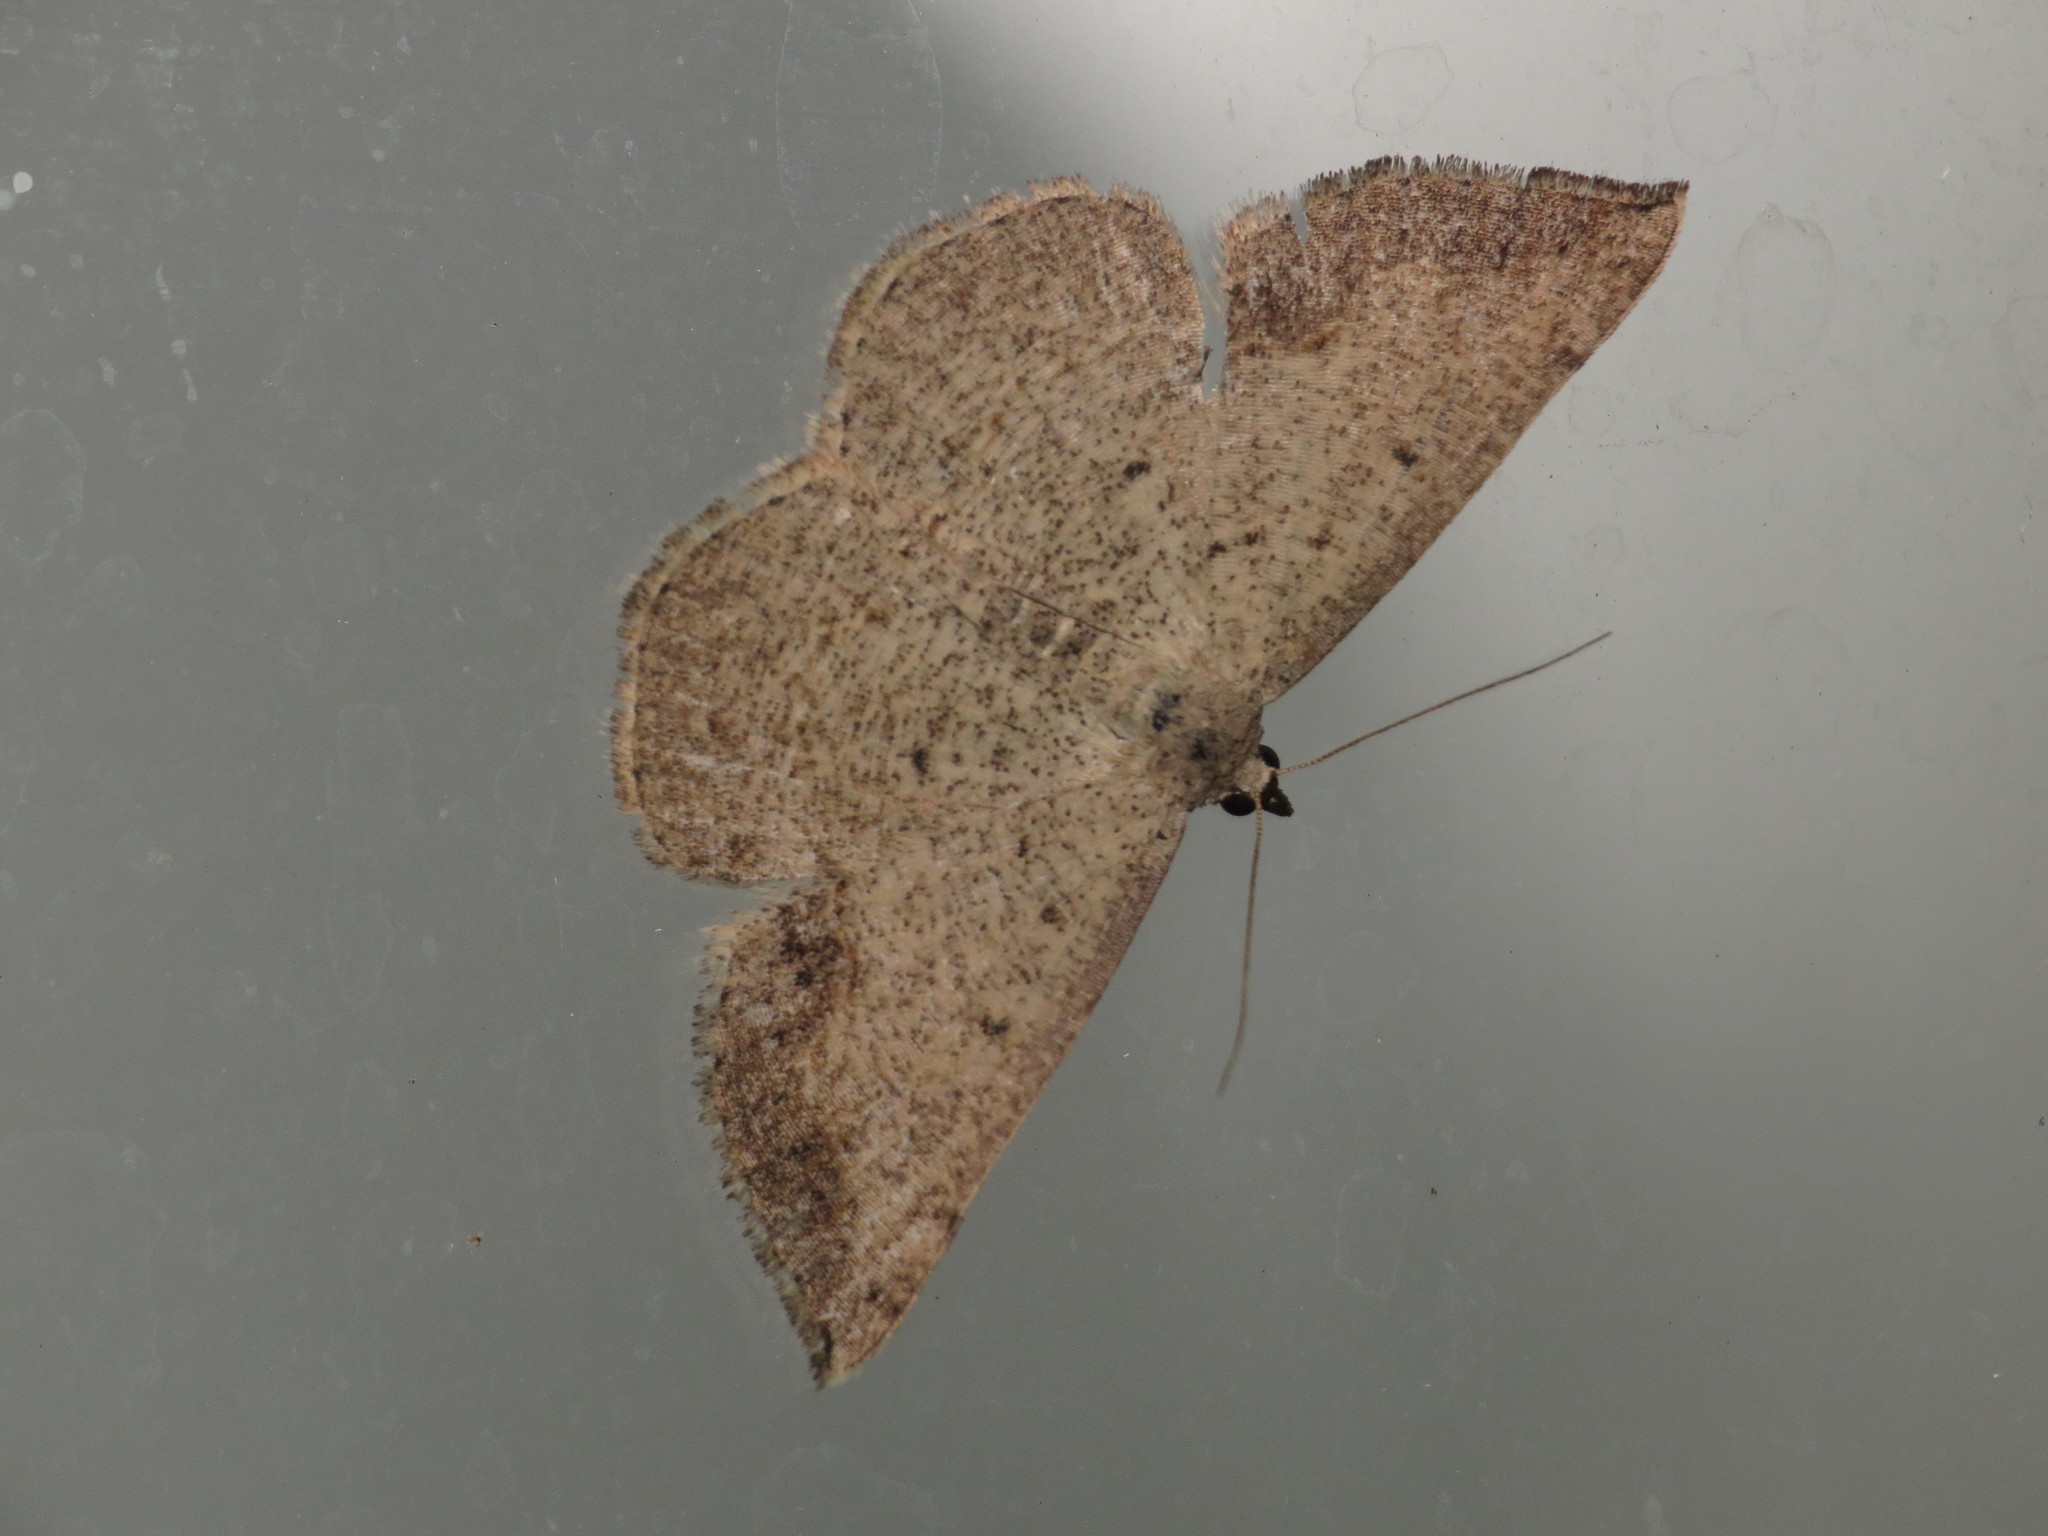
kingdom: Animalia
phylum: Arthropoda
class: Insecta
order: Lepidoptera
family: Geometridae
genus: Taxeotis
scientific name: Taxeotis intextata
